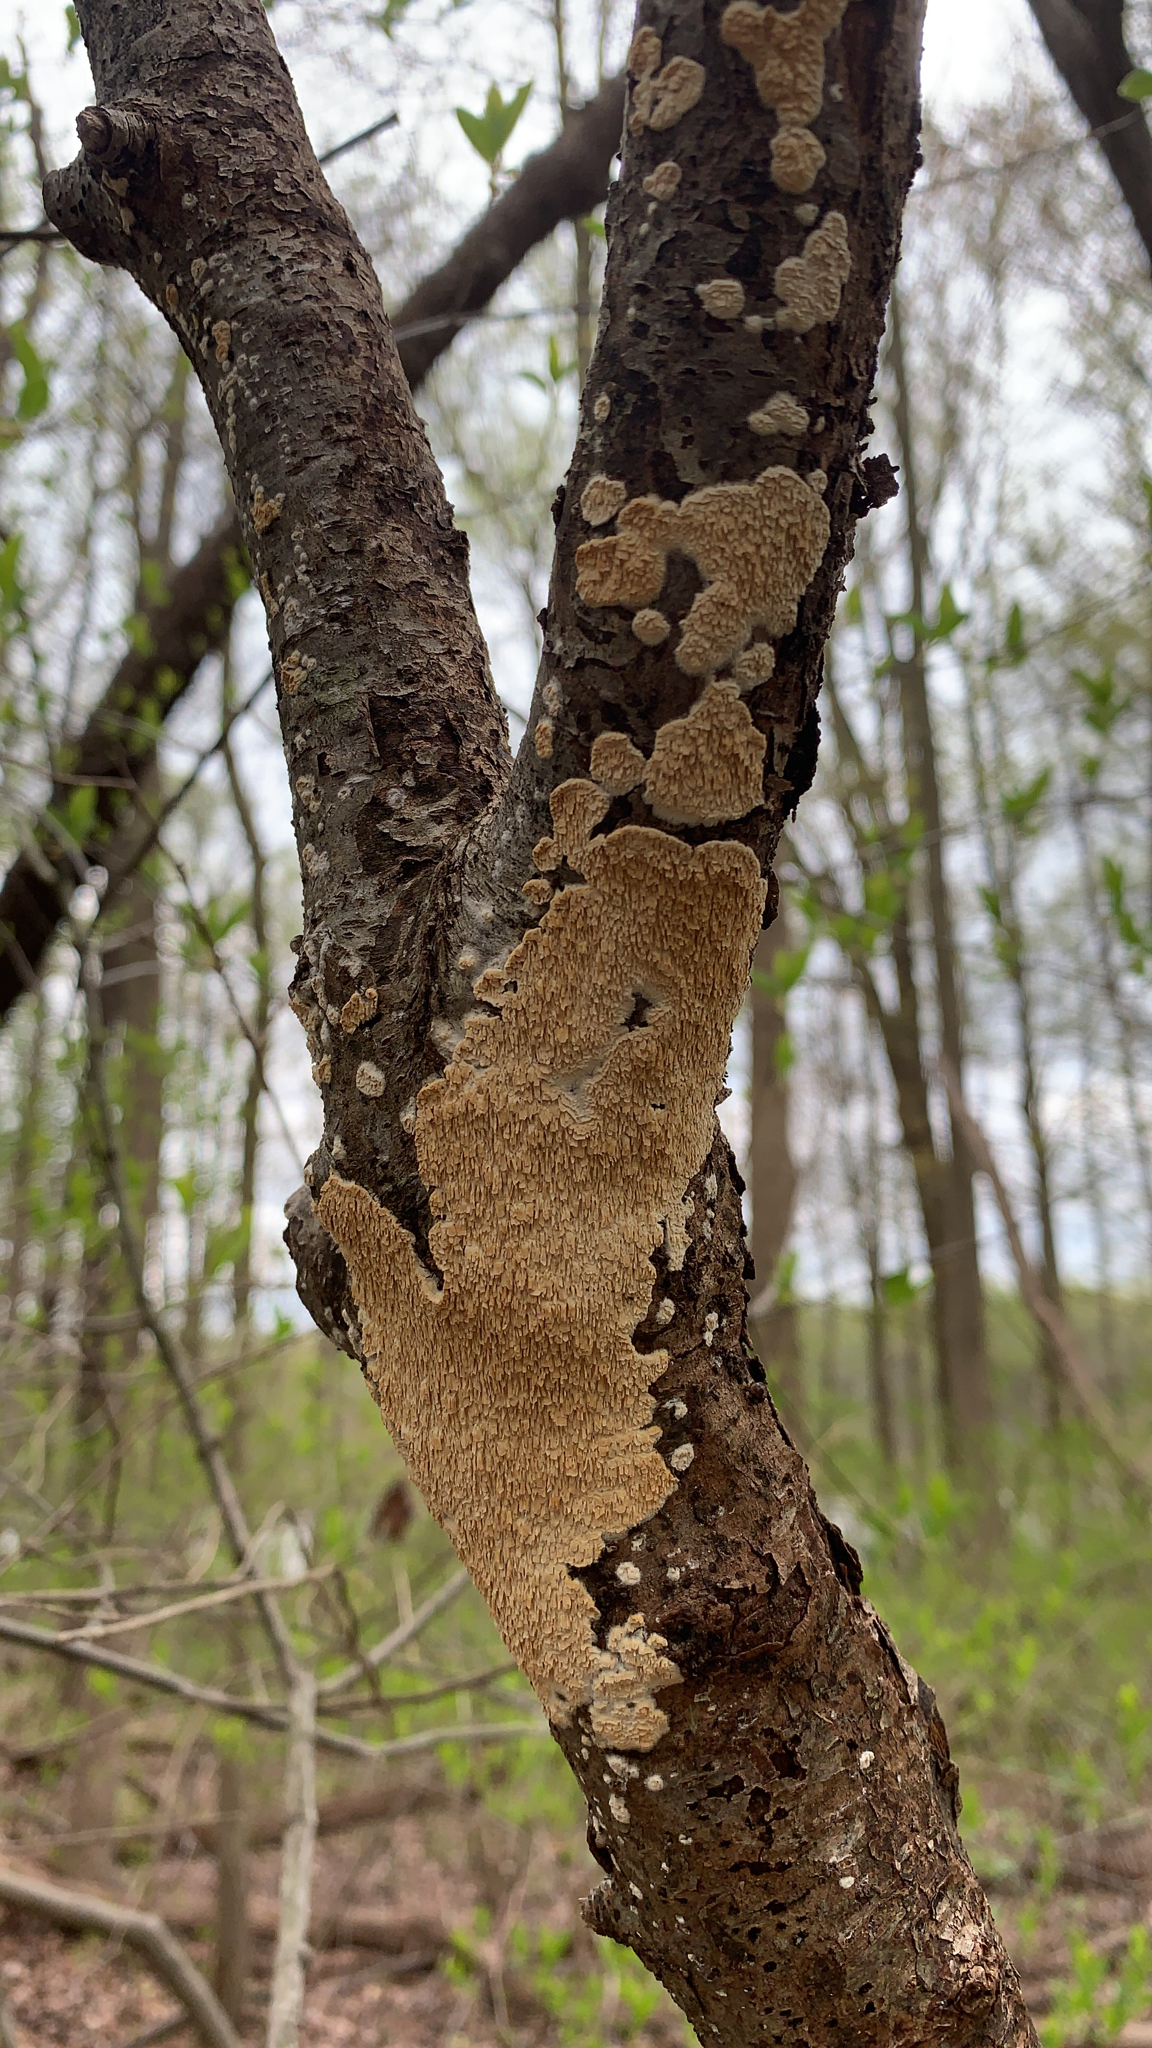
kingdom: Fungi
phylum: Basidiomycota
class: Agaricomycetes
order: Polyporales
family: Irpicaceae
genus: Irpex
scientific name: Irpex lacteus
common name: Milk-white toothed polypore
